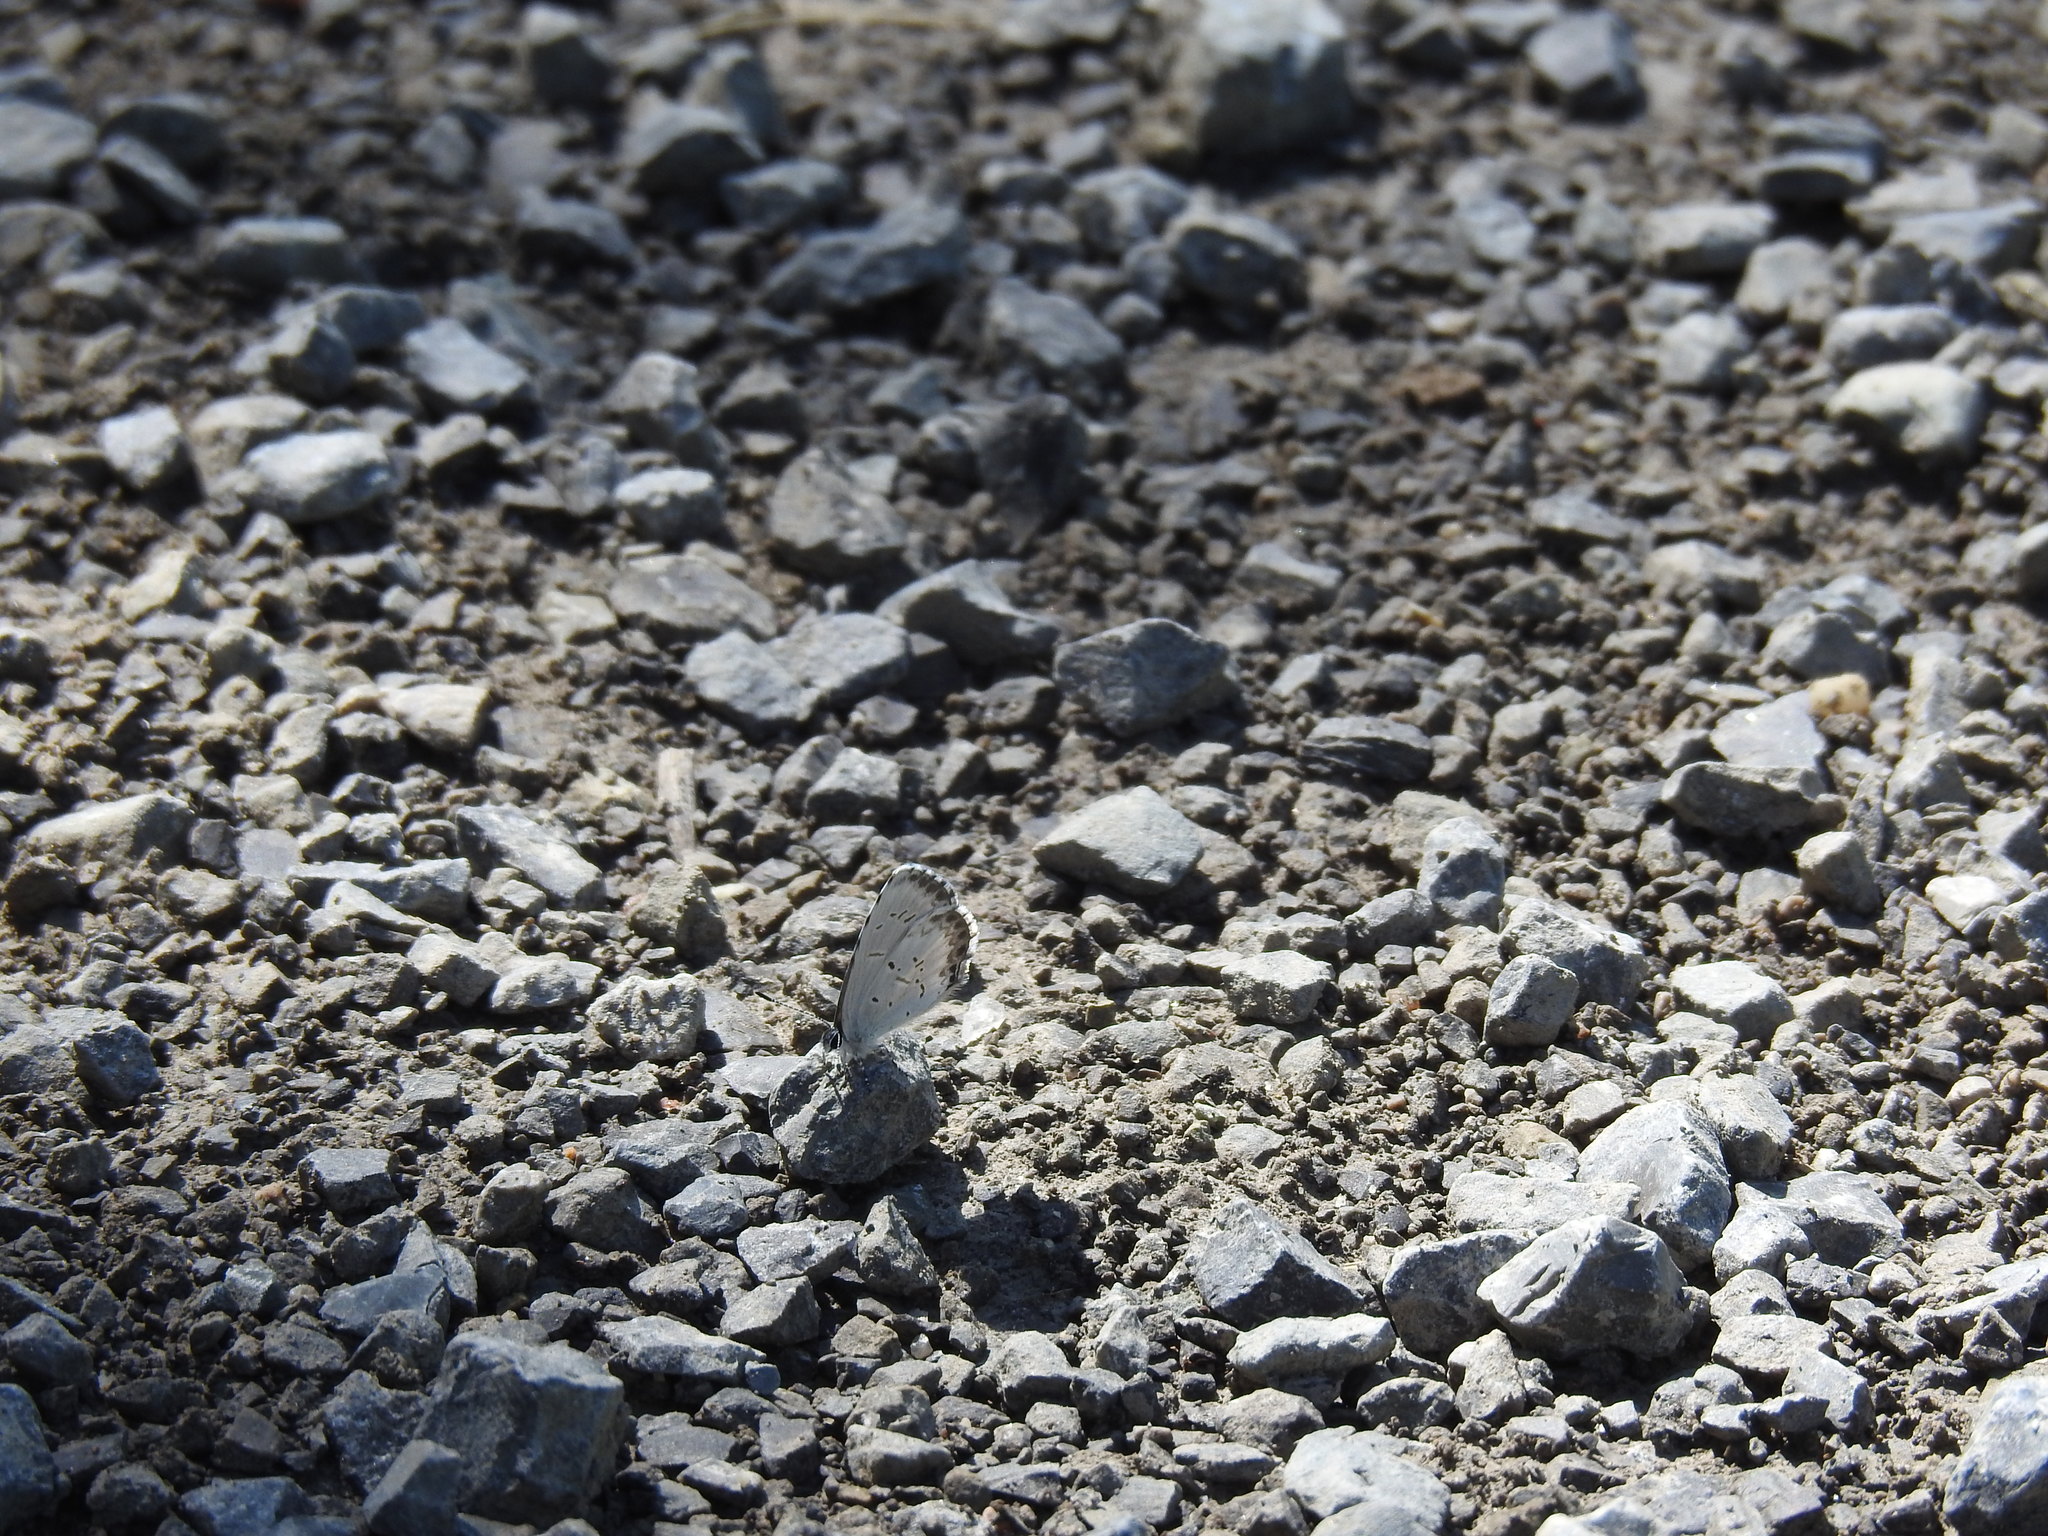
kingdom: Animalia
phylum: Arthropoda
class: Insecta
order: Lepidoptera
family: Lycaenidae
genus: Celastrina
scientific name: Celastrina lucia
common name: Lucia azure
